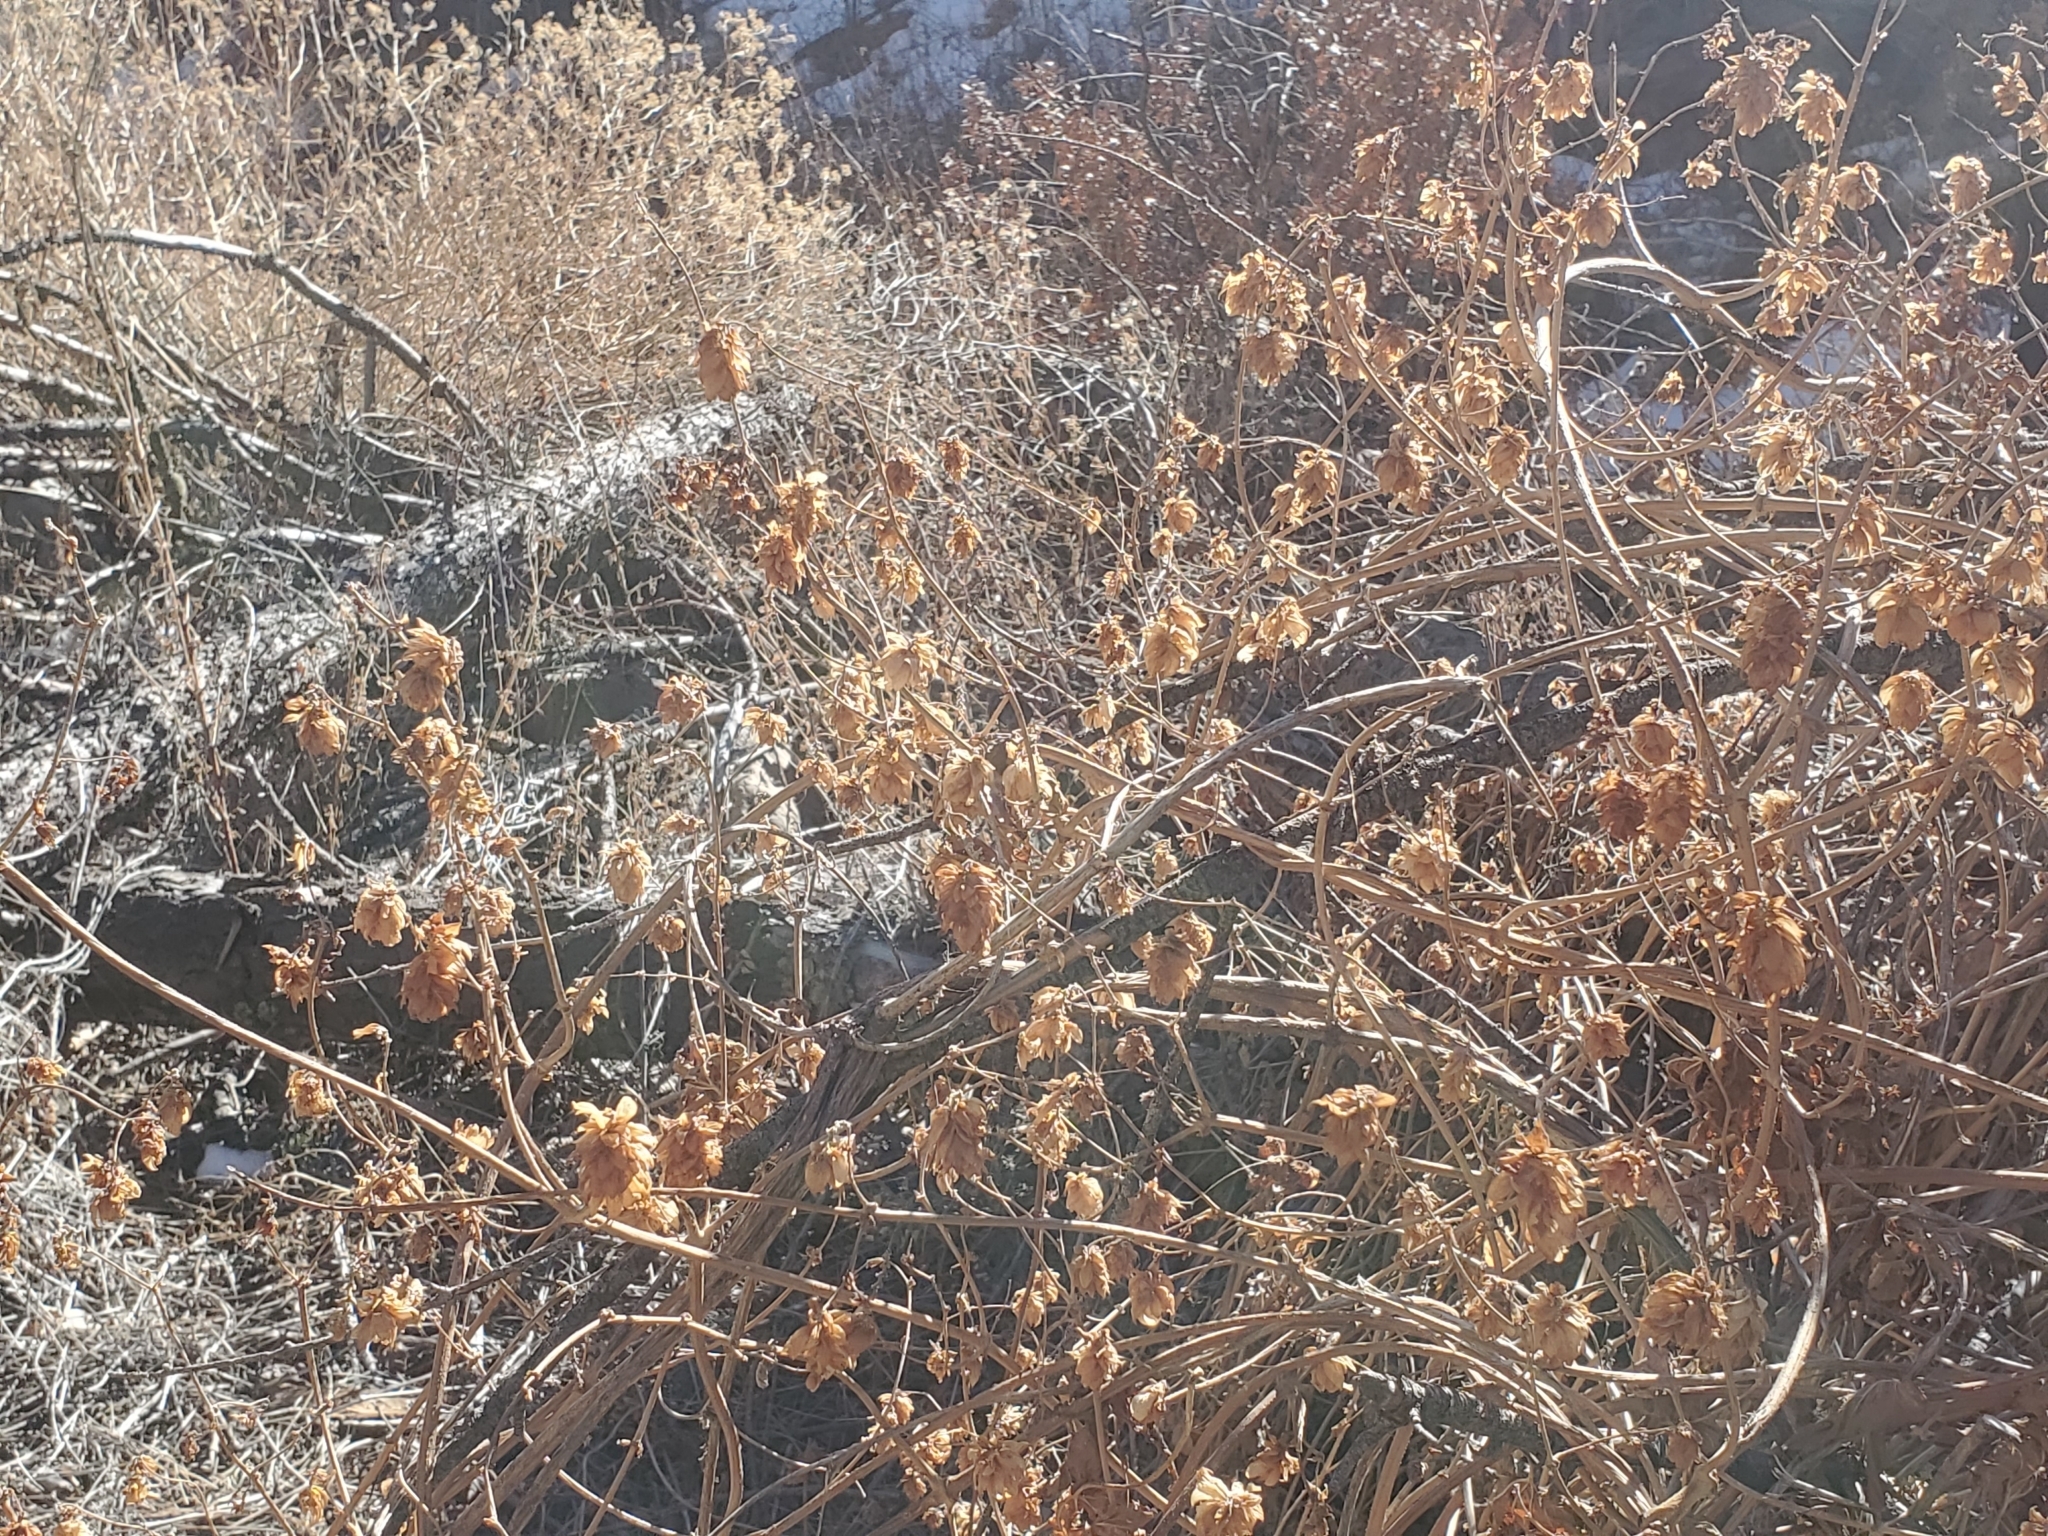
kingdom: Plantae
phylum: Tracheophyta
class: Magnoliopsida
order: Rosales
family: Cannabaceae
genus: Humulus
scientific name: Humulus lupulus
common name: Hop
